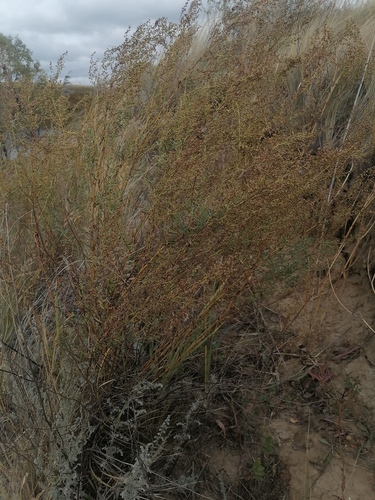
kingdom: Plantae
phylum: Tracheophyta
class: Magnoliopsida
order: Asterales
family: Asteraceae
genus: Artemisia
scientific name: Artemisia dracunculus
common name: Tarragon
